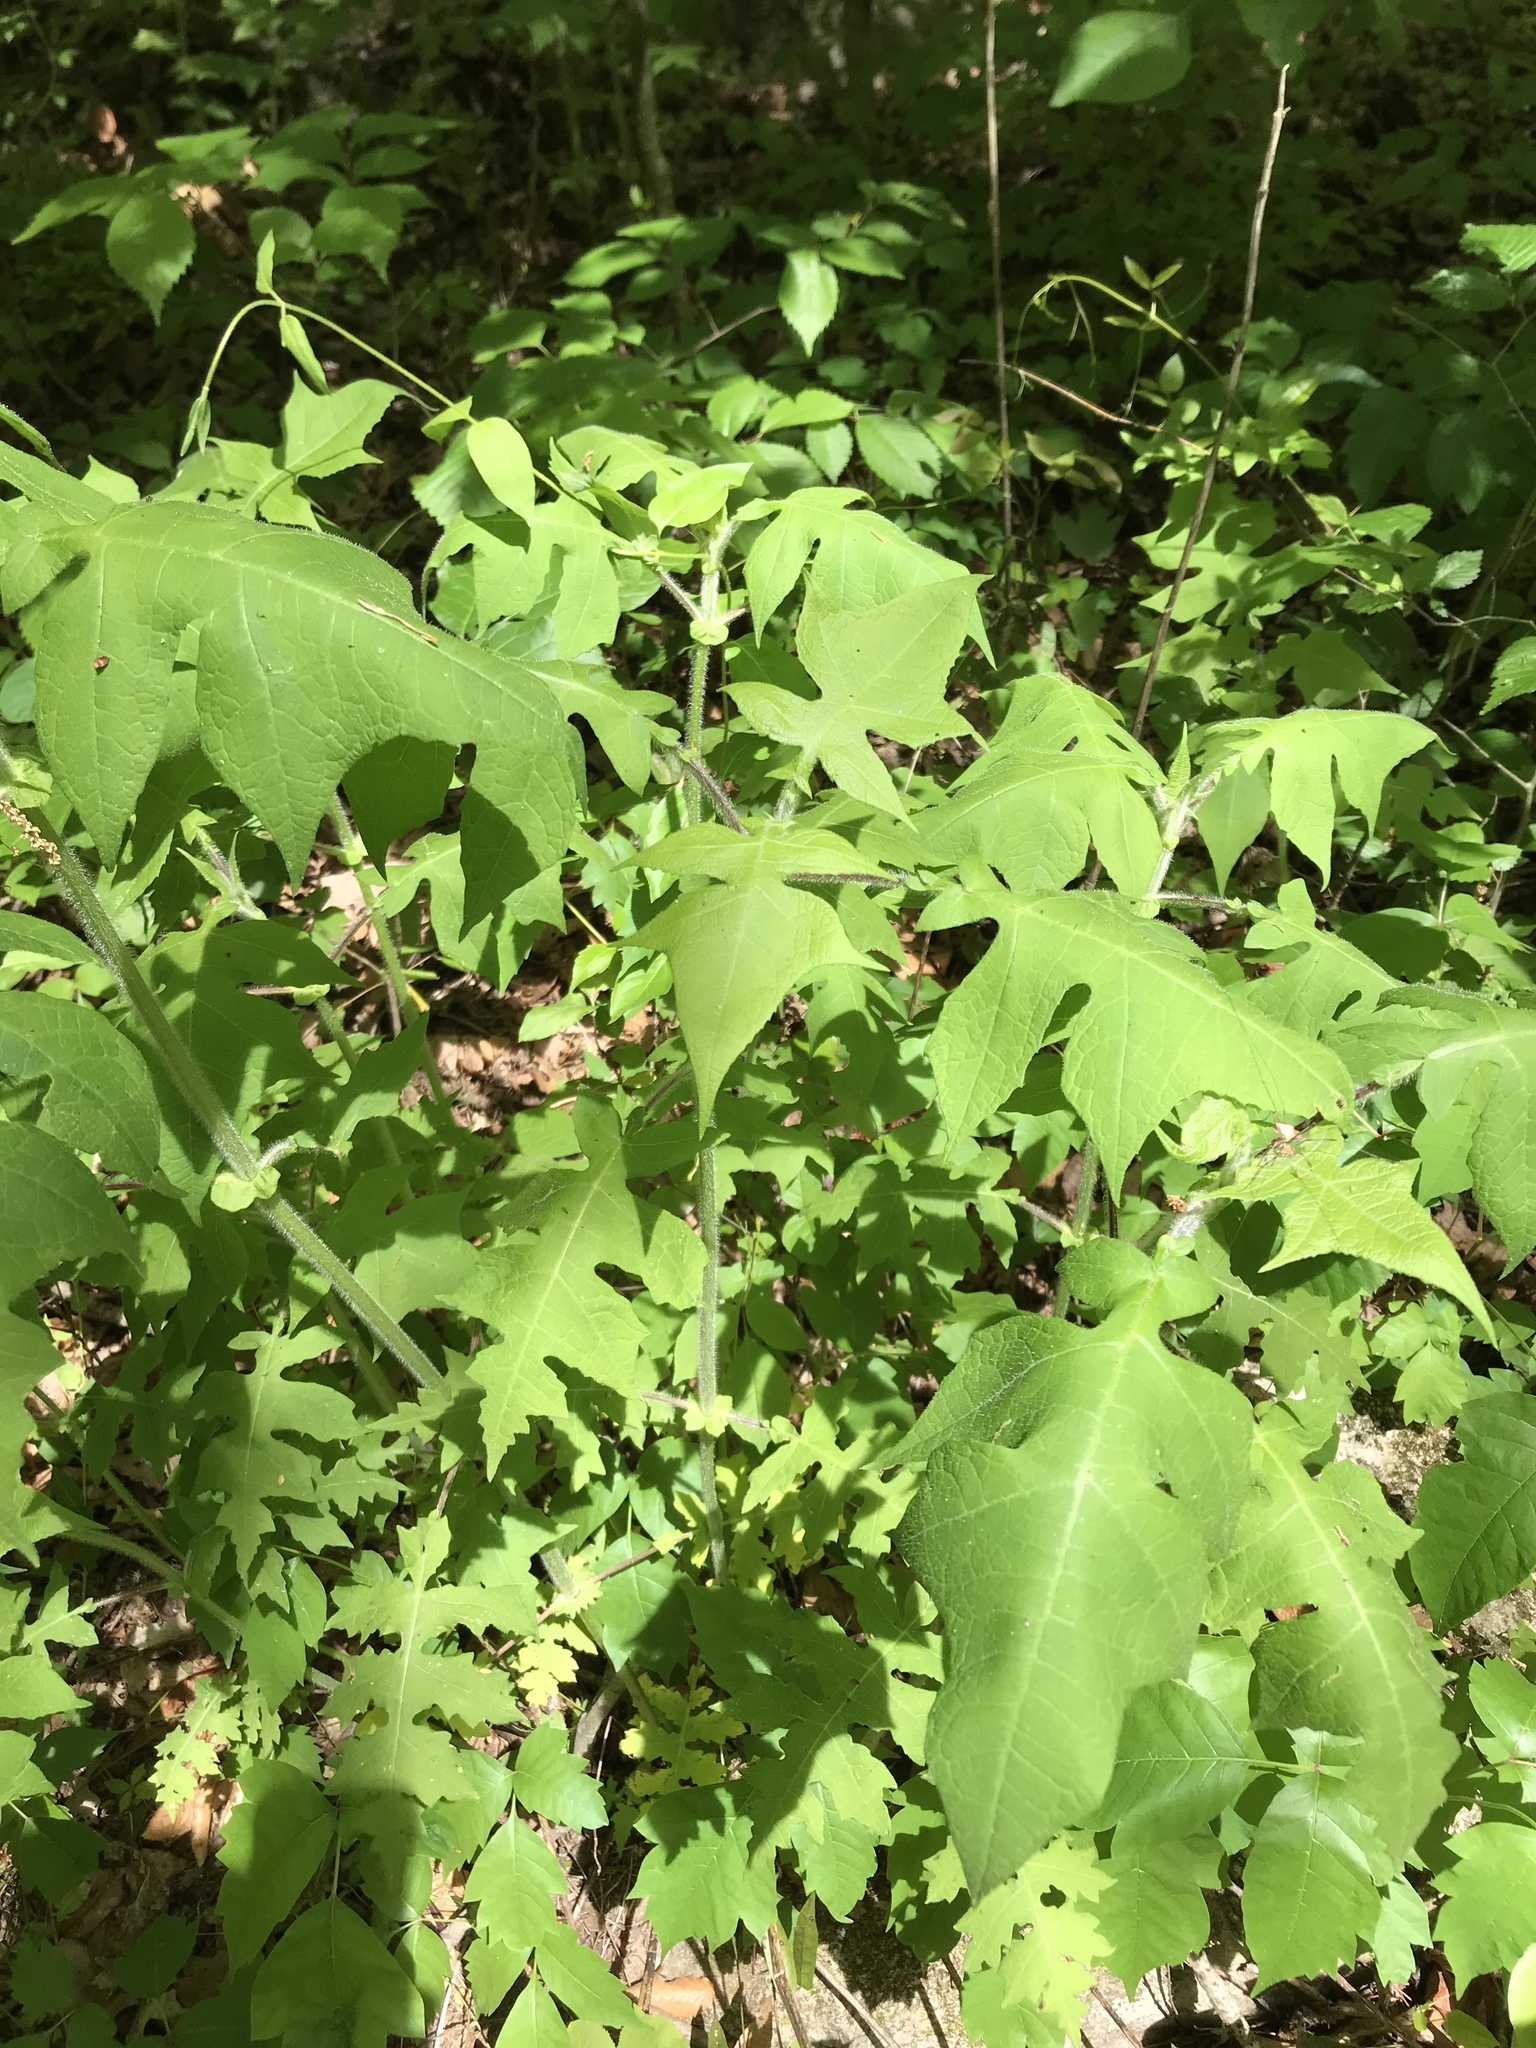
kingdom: Plantae
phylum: Tracheophyta
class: Magnoliopsida
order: Asterales
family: Asteraceae
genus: Polymnia
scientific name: Polymnia canadensis
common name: Pale-flowered leafcup
